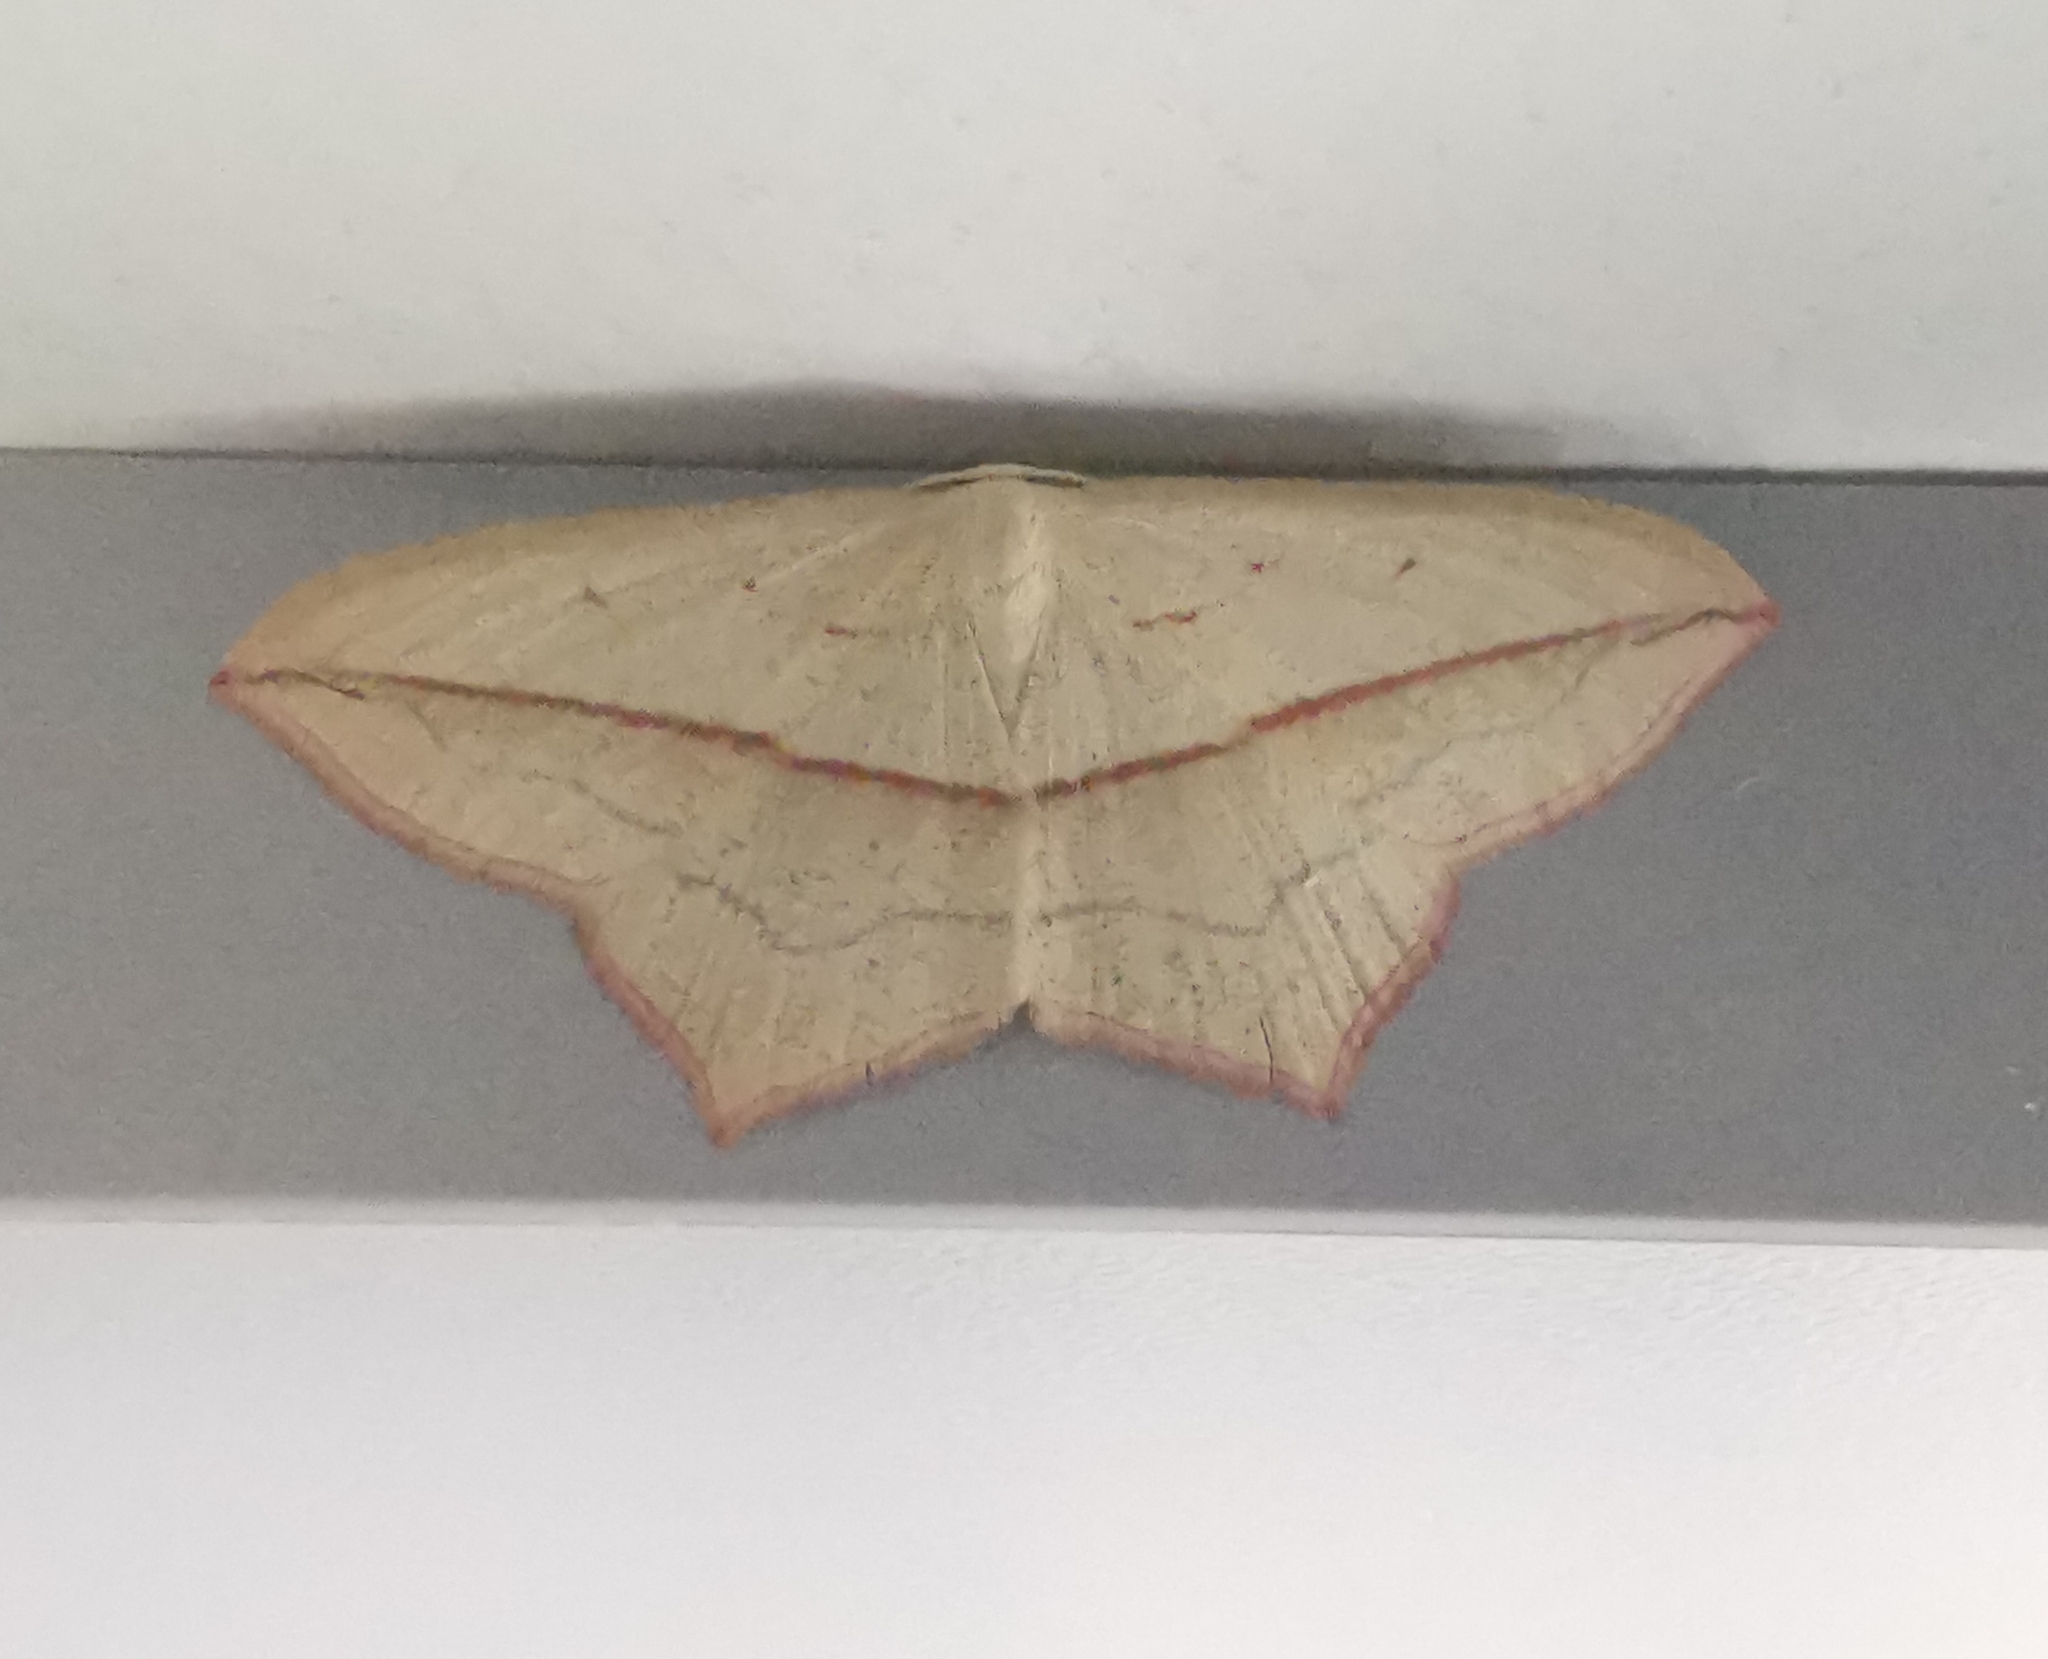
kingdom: Animalia
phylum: Arthropoda
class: Insecta
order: Lepidoptera
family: Geometridae
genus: Timandra
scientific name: Timandra comae
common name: Blood-vein
